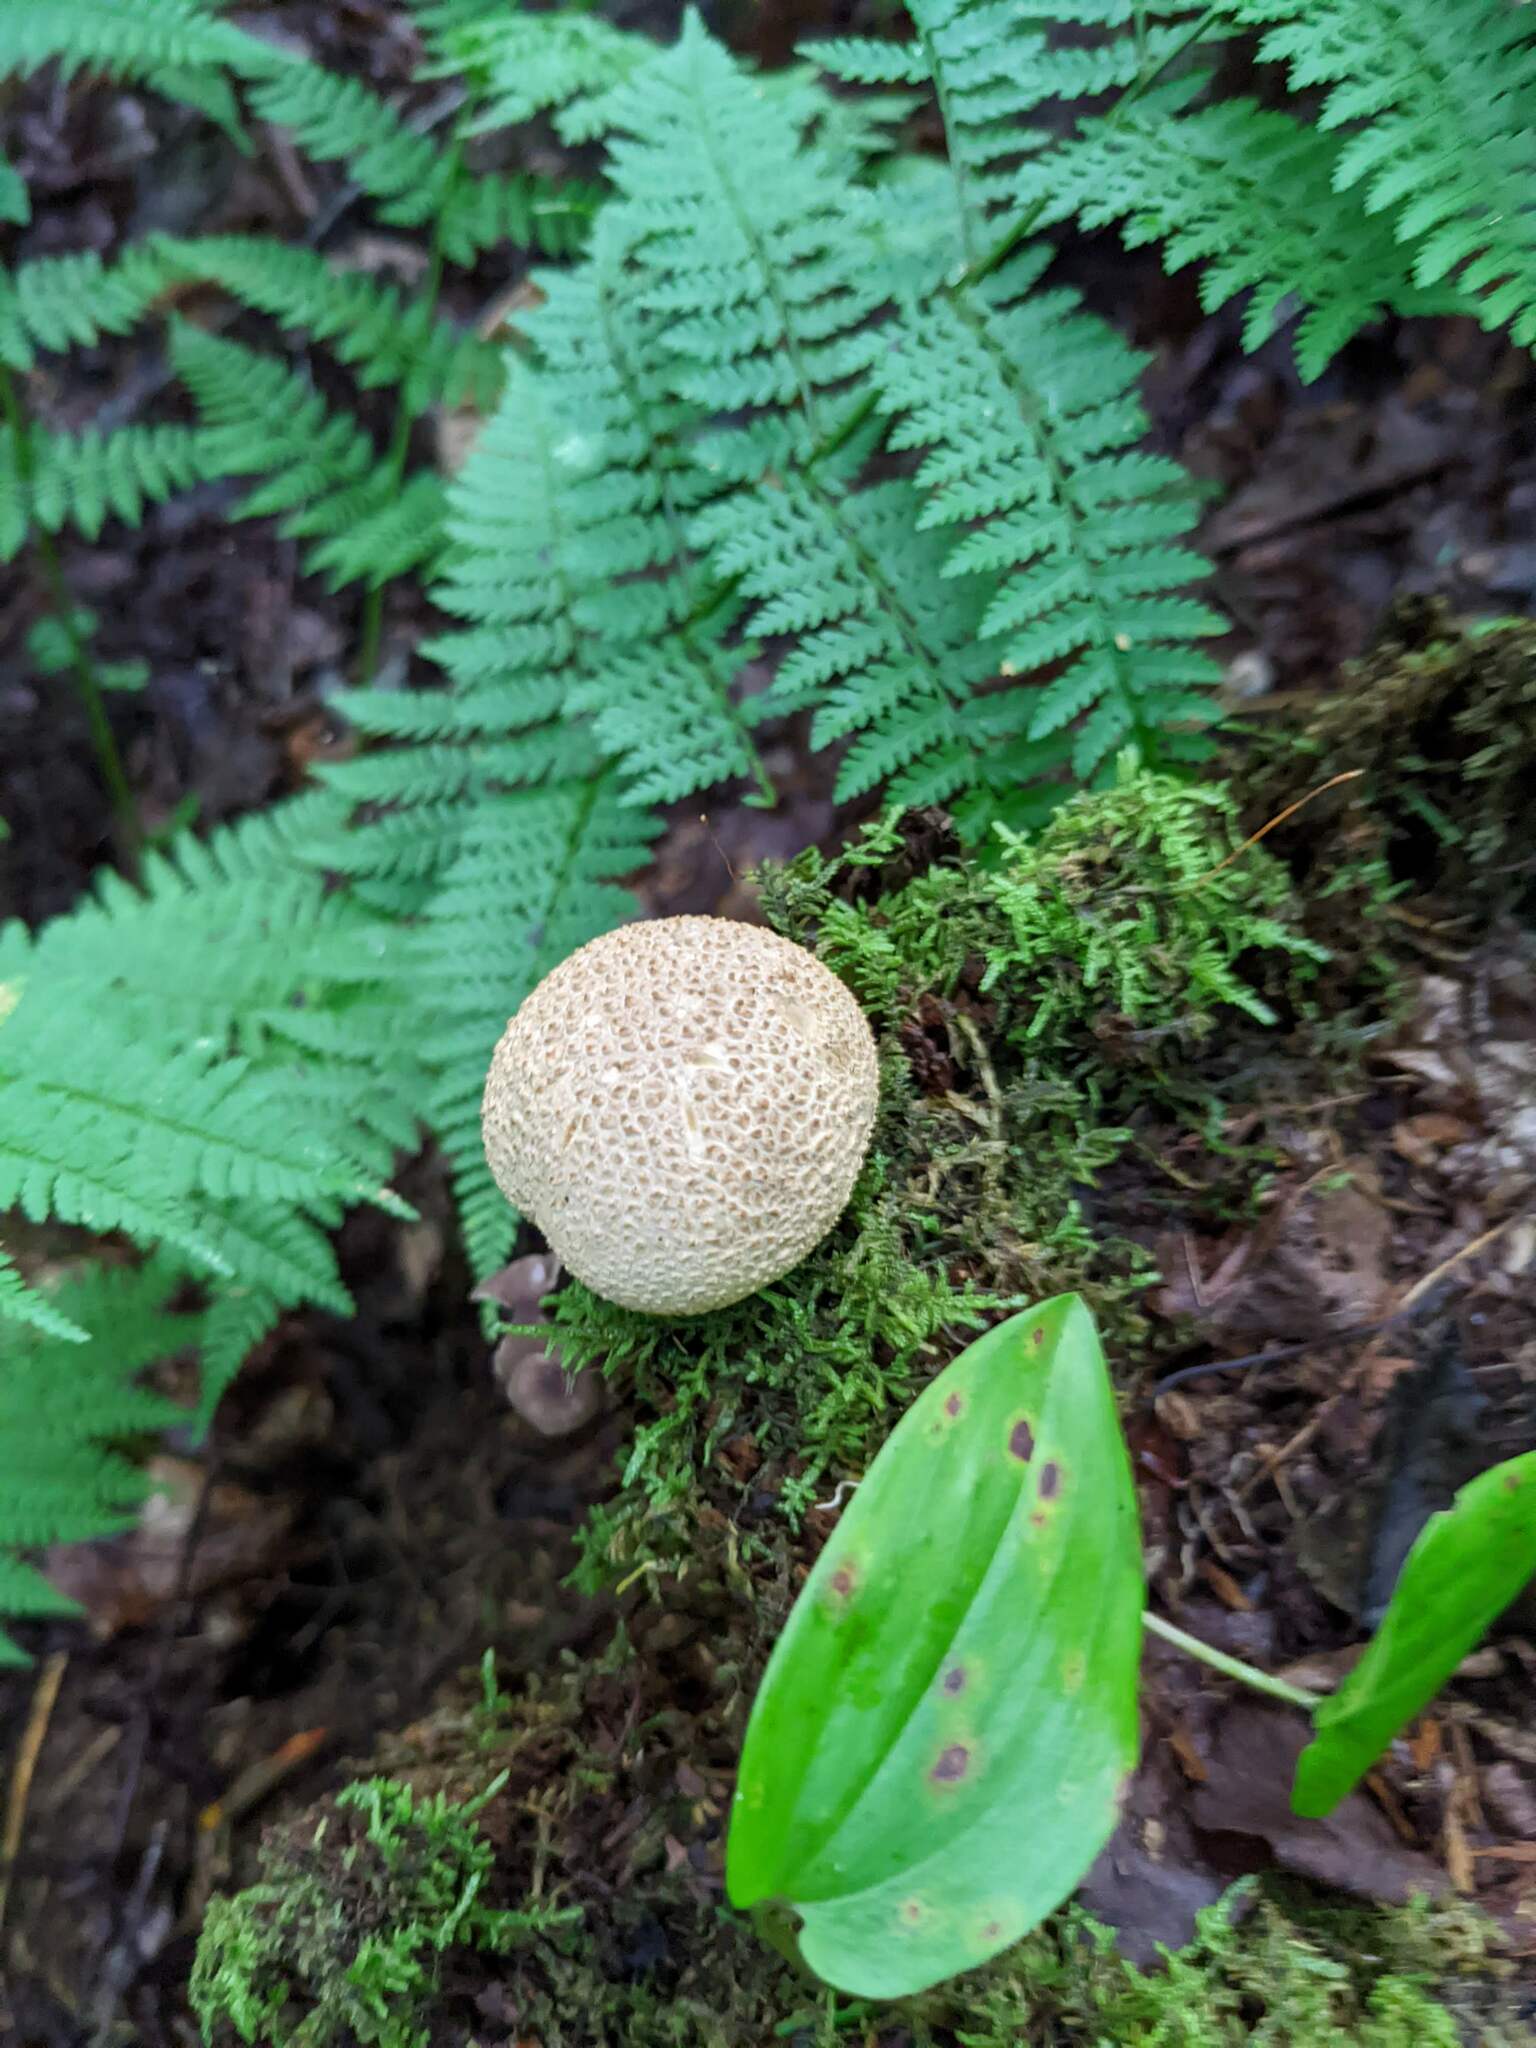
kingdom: Fungi
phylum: Basidiomycota
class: Agaricomycetes
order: Boletales
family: Sclerodermataceae
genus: Scleroderma
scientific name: Scleroderma citrinum
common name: Common earthball
